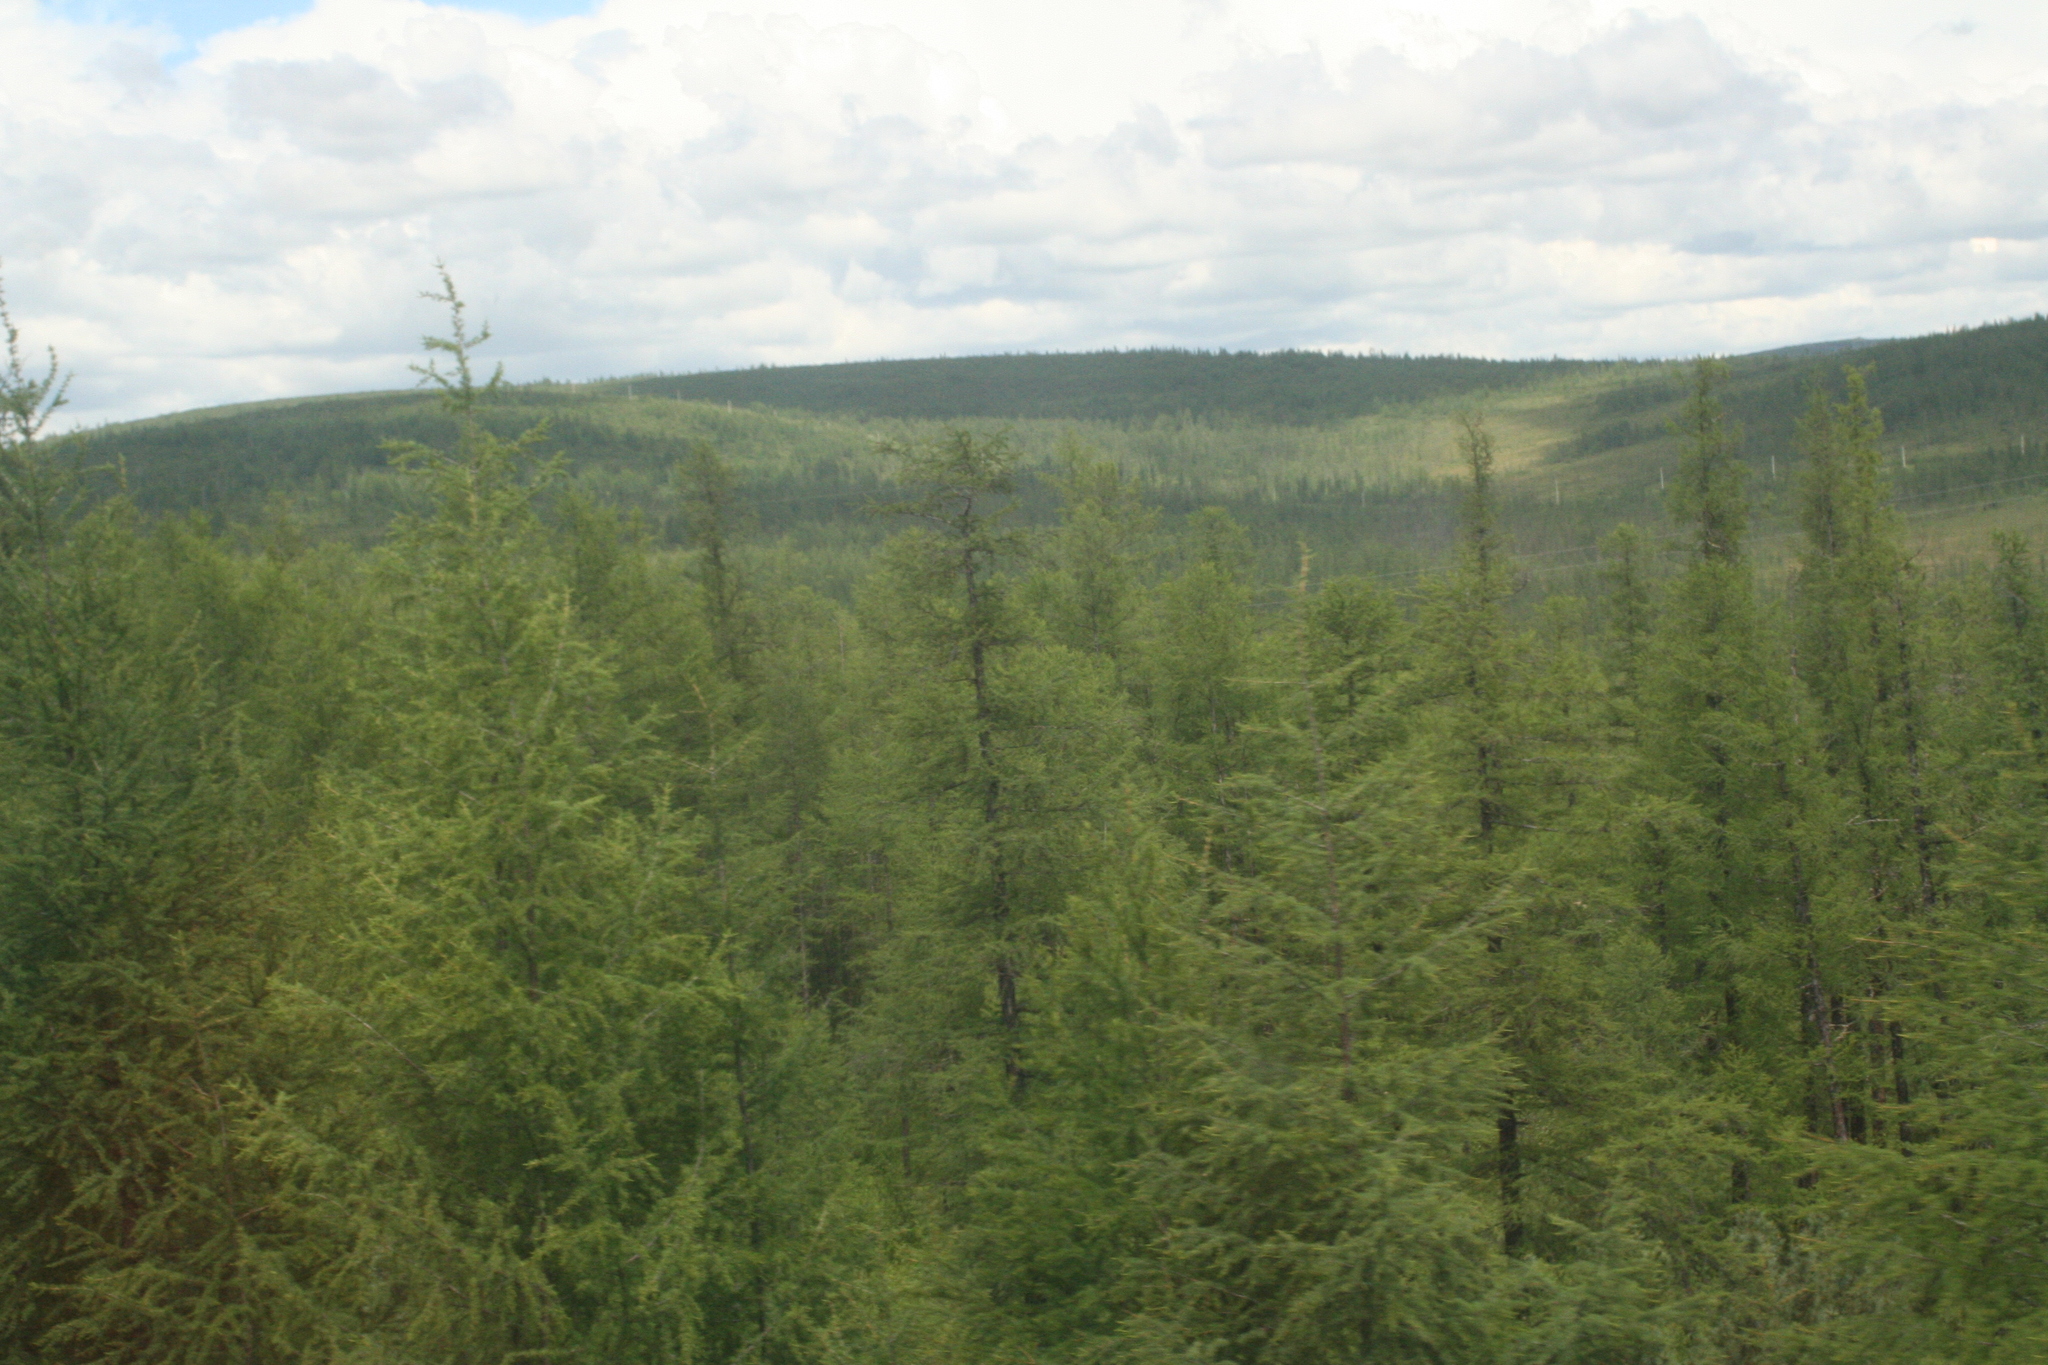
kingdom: Plantae
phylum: Tracheophyta
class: Pinopsida
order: Pinales
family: Pinaceae
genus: Larix
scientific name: Larix gmelinii
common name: Dahurian larch
